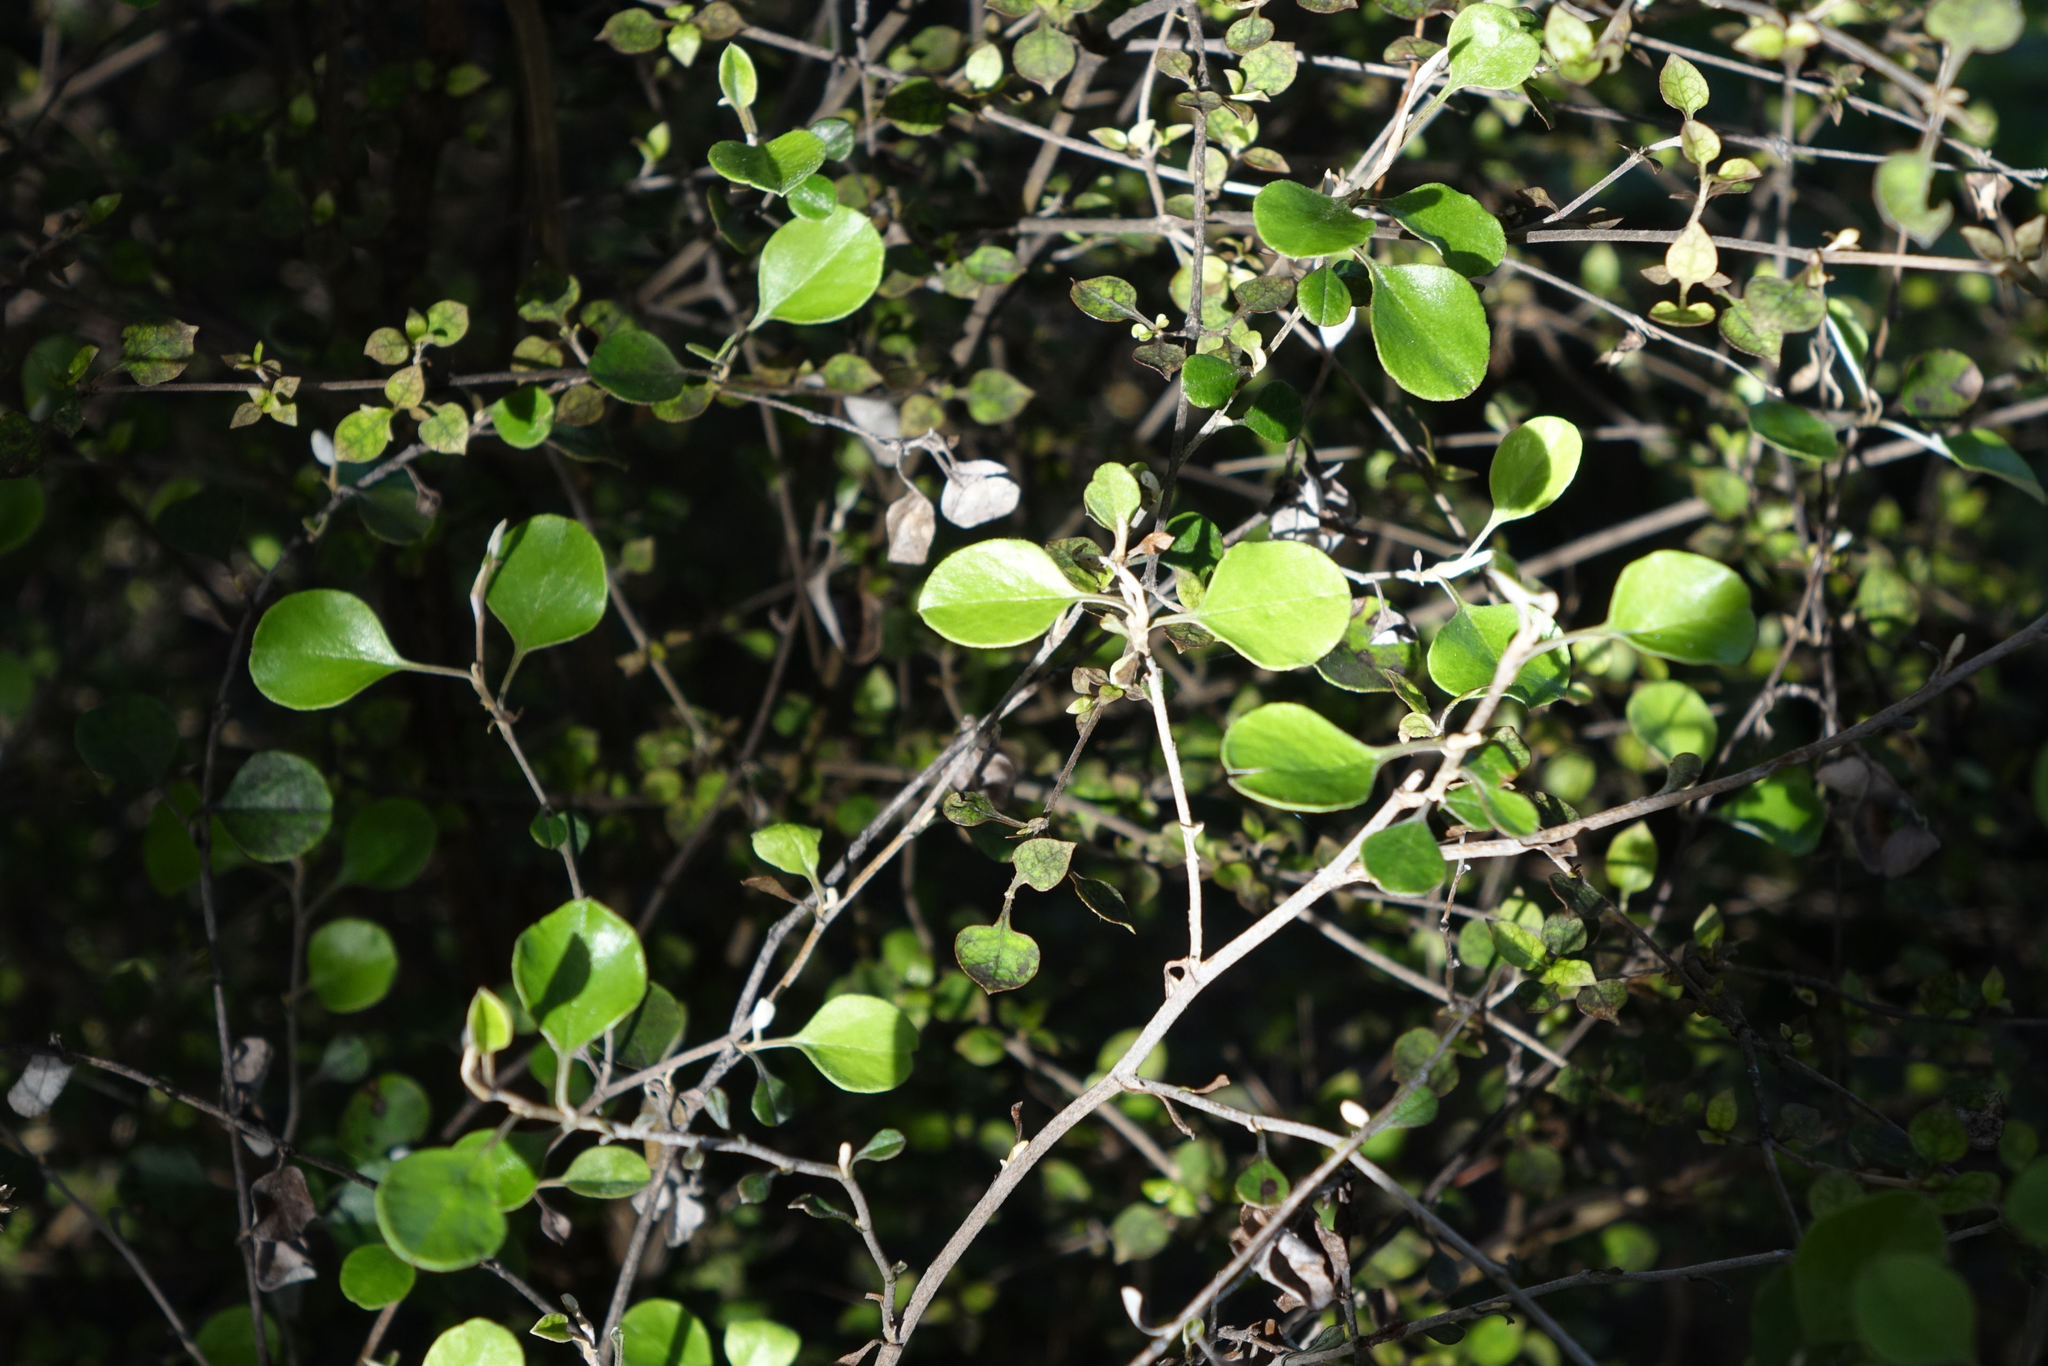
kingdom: Plantae
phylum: Tracheophyta
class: Magnoliopsida
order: Asterales
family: Asteraceae
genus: Ozothamnus
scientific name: Ozothamnus glomeratus
